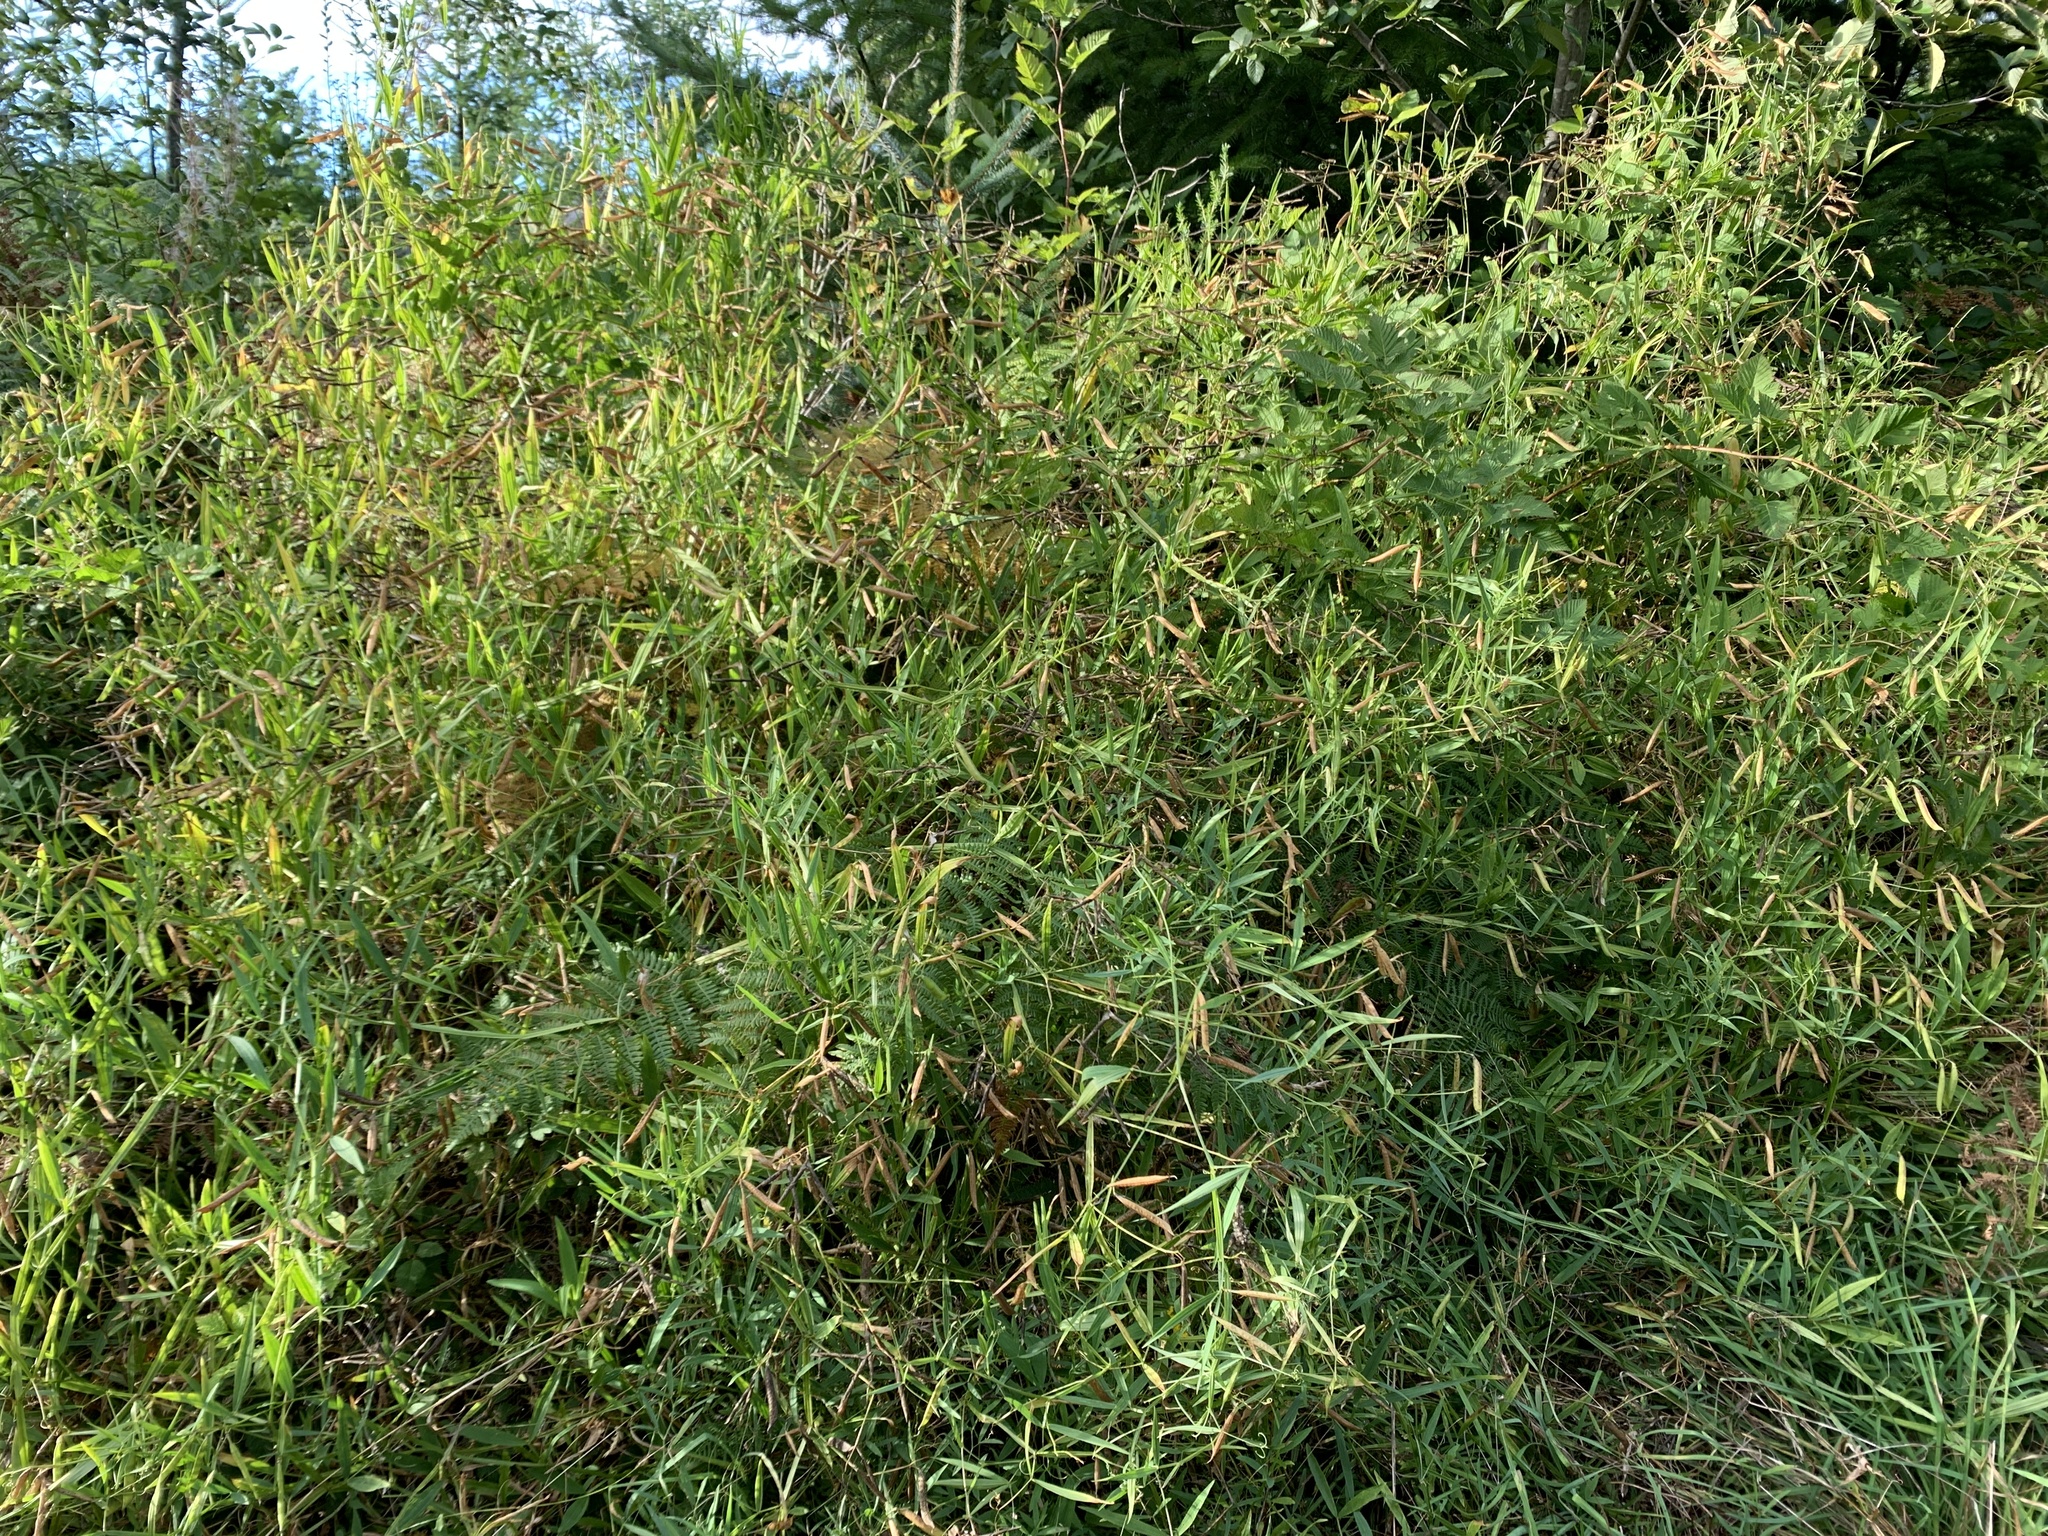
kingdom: Plantae
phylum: Tracheophyta
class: Magnoliopsida
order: Fabales
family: Fabaceae
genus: Lathyrus
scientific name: Lathyrus sylvestris
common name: Flat pea
